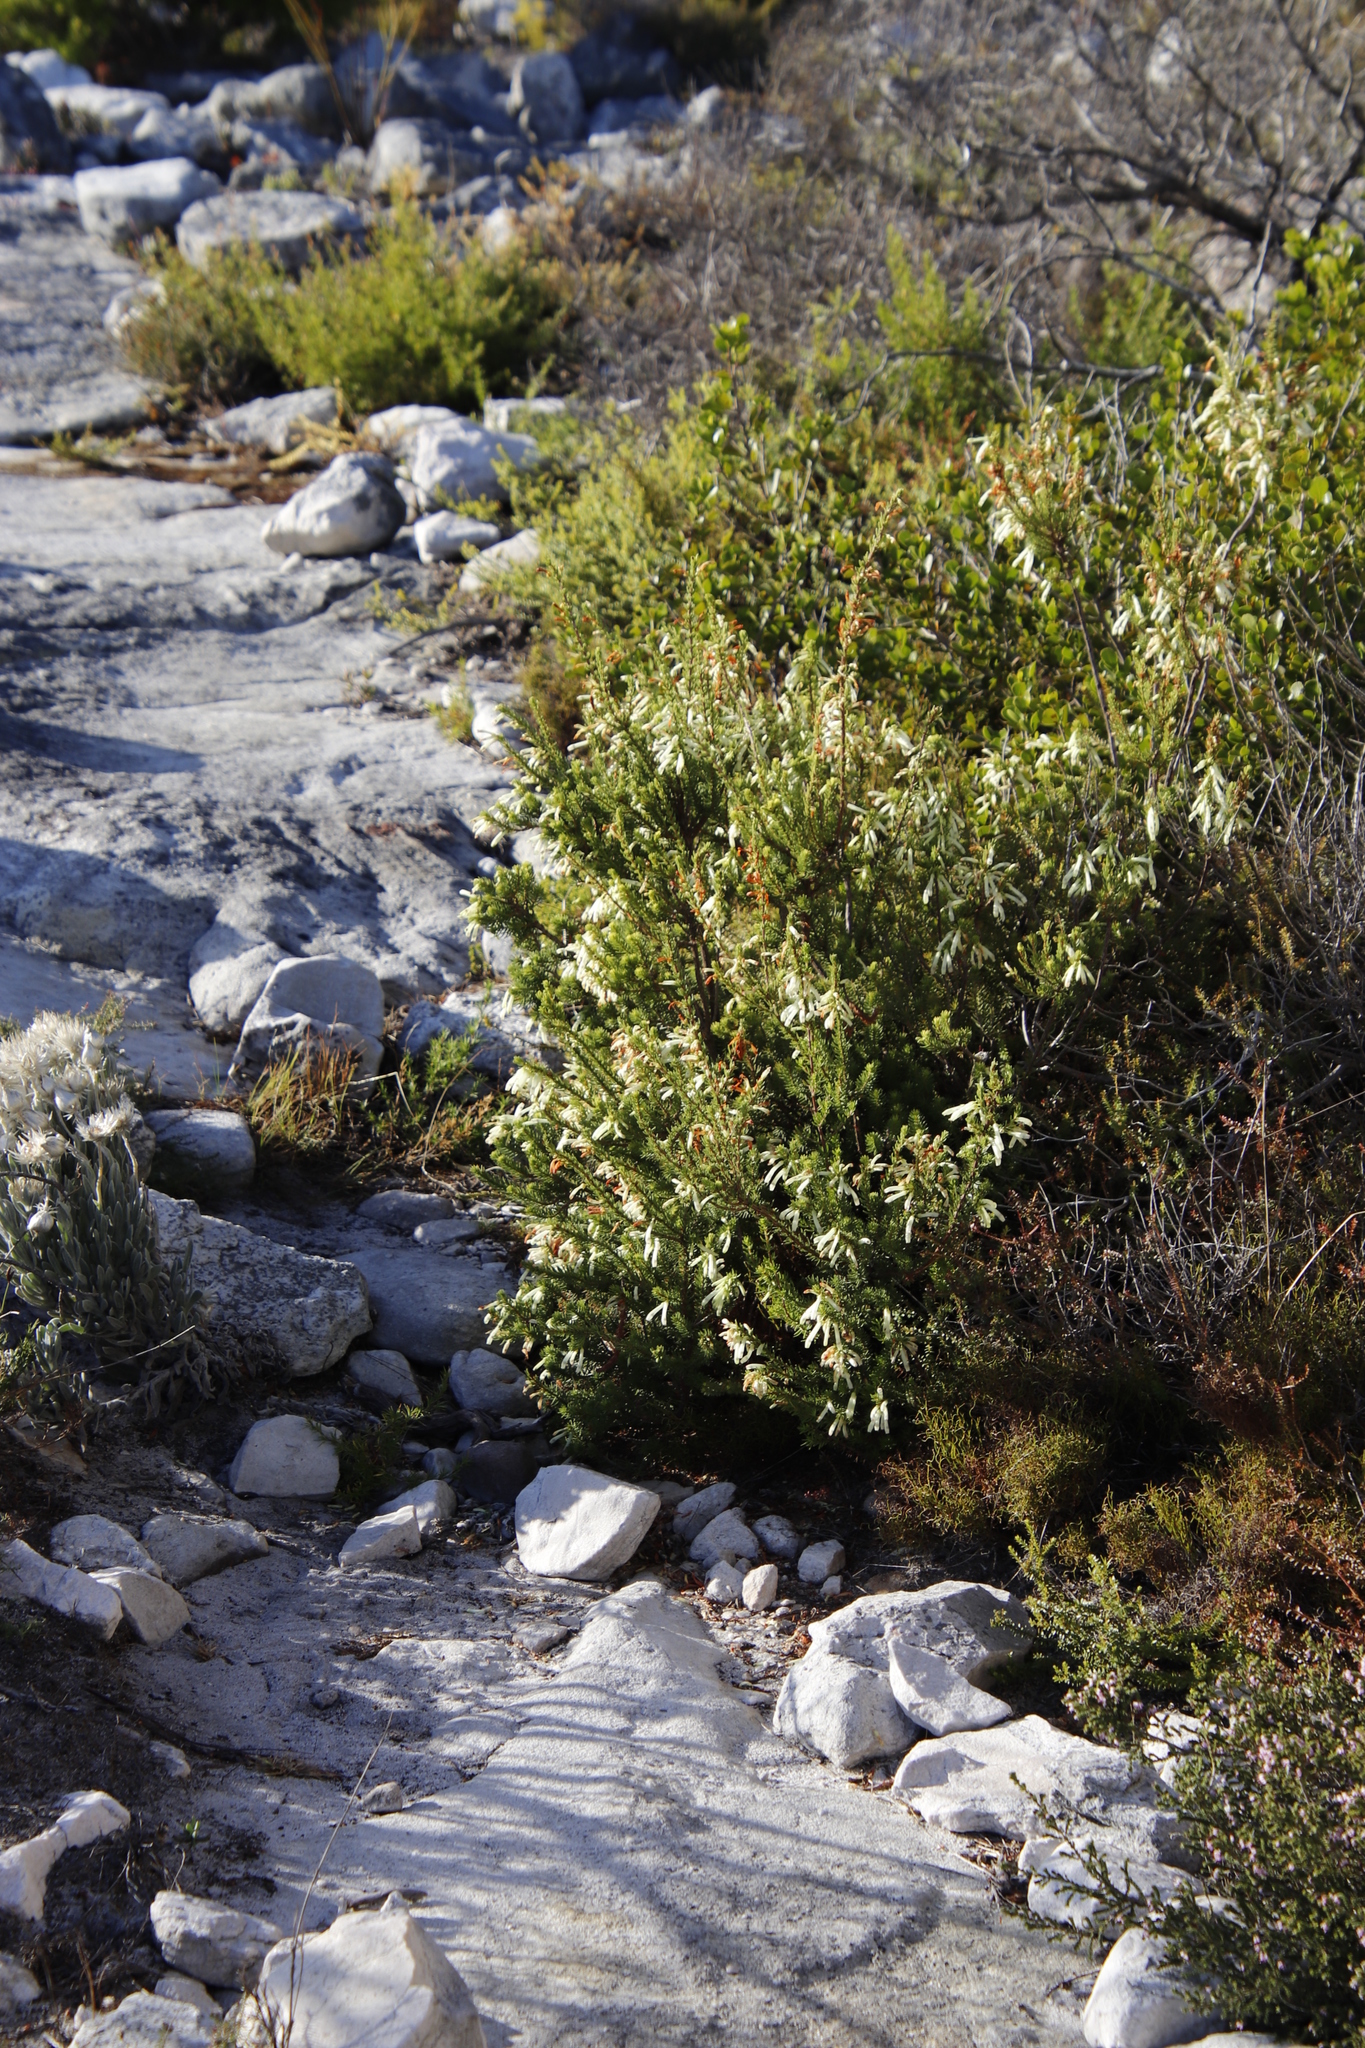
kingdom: Plantae
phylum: Tracheophyta
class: Magnoliopsida
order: Ericales
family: Ericaceae
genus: Erica
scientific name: Erica mammosa
